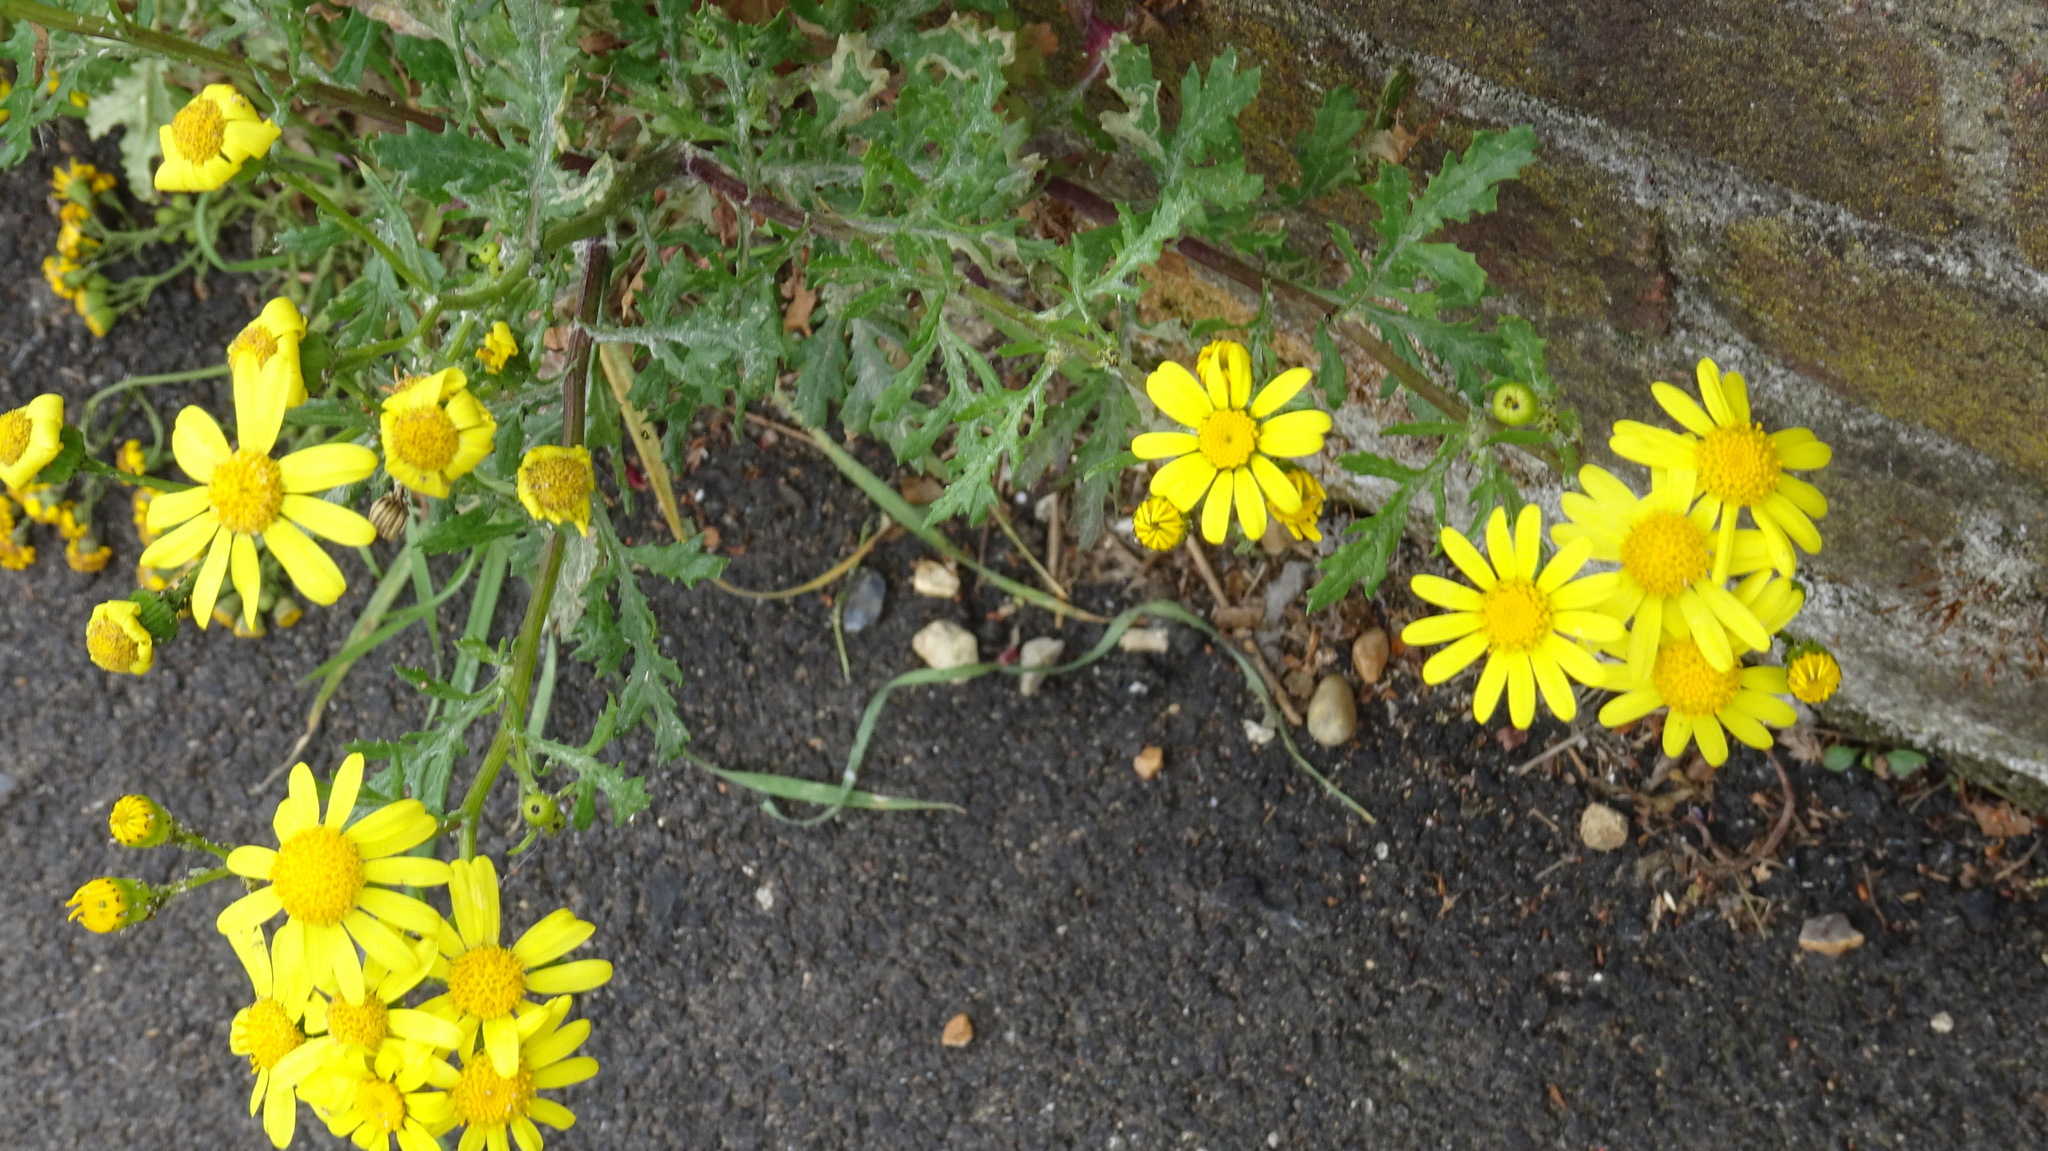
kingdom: Plantae
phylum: Tracheophyta
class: Magnoliopsida
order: Asterales
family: Asteraceae
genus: Senecio
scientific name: Senecio squalidus
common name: Oxford ragwort
